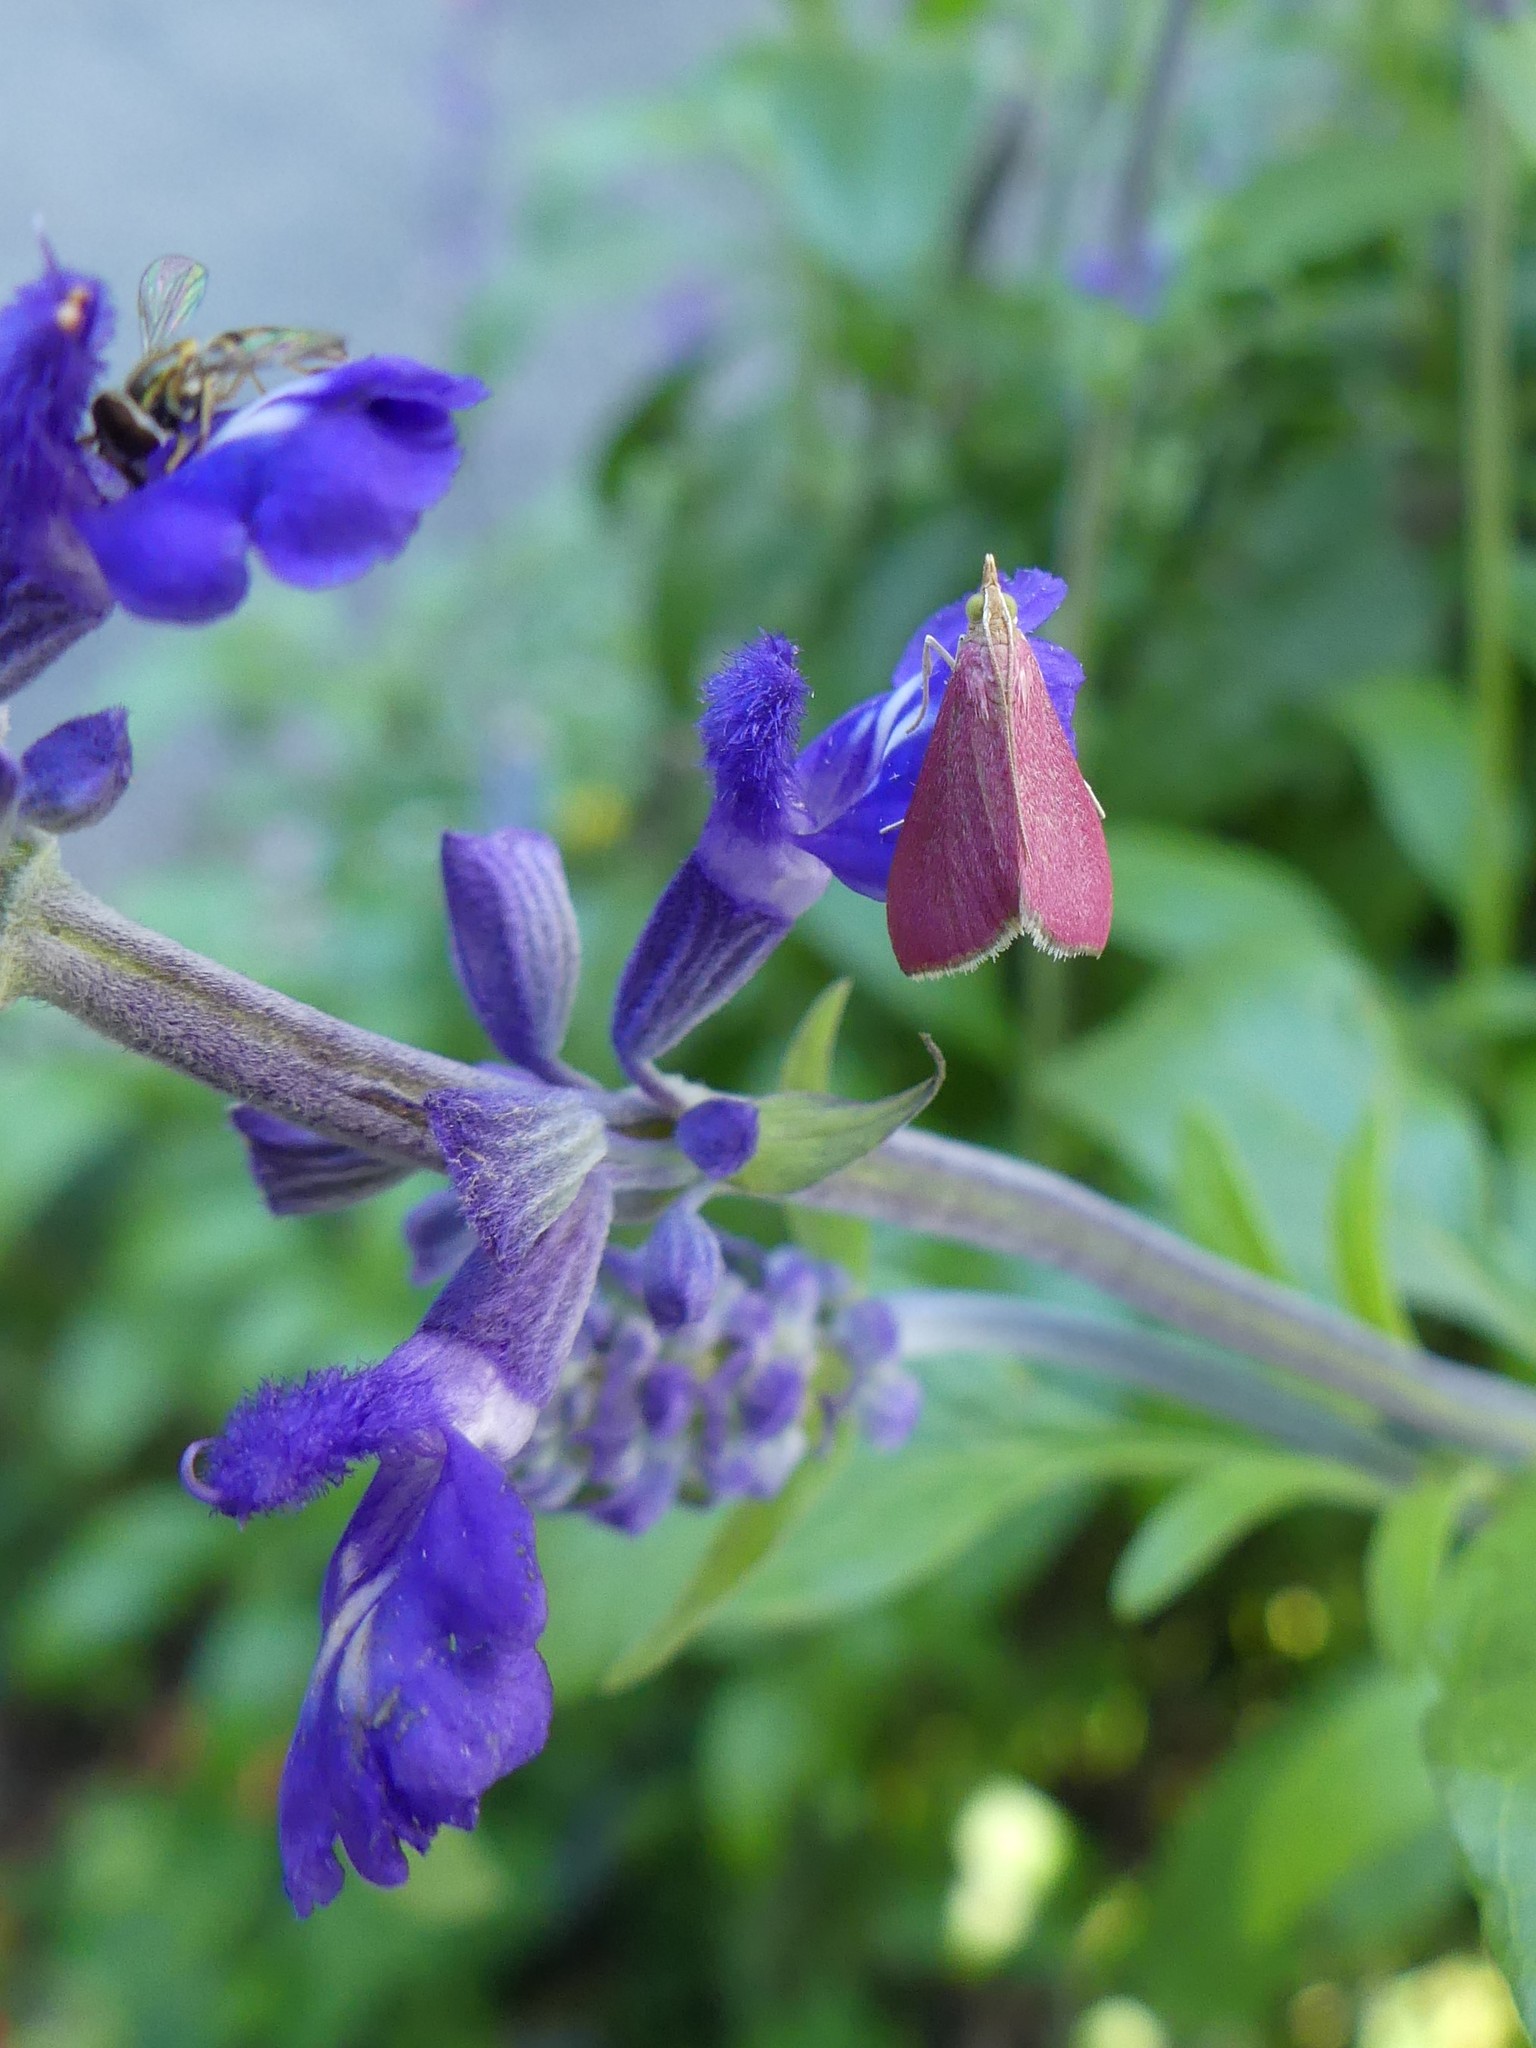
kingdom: Animalia
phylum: Arthropoda
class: Insecta
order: Lepidoptera
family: Crambidae
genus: Pyrausta
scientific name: Pyrausta inornatalis
